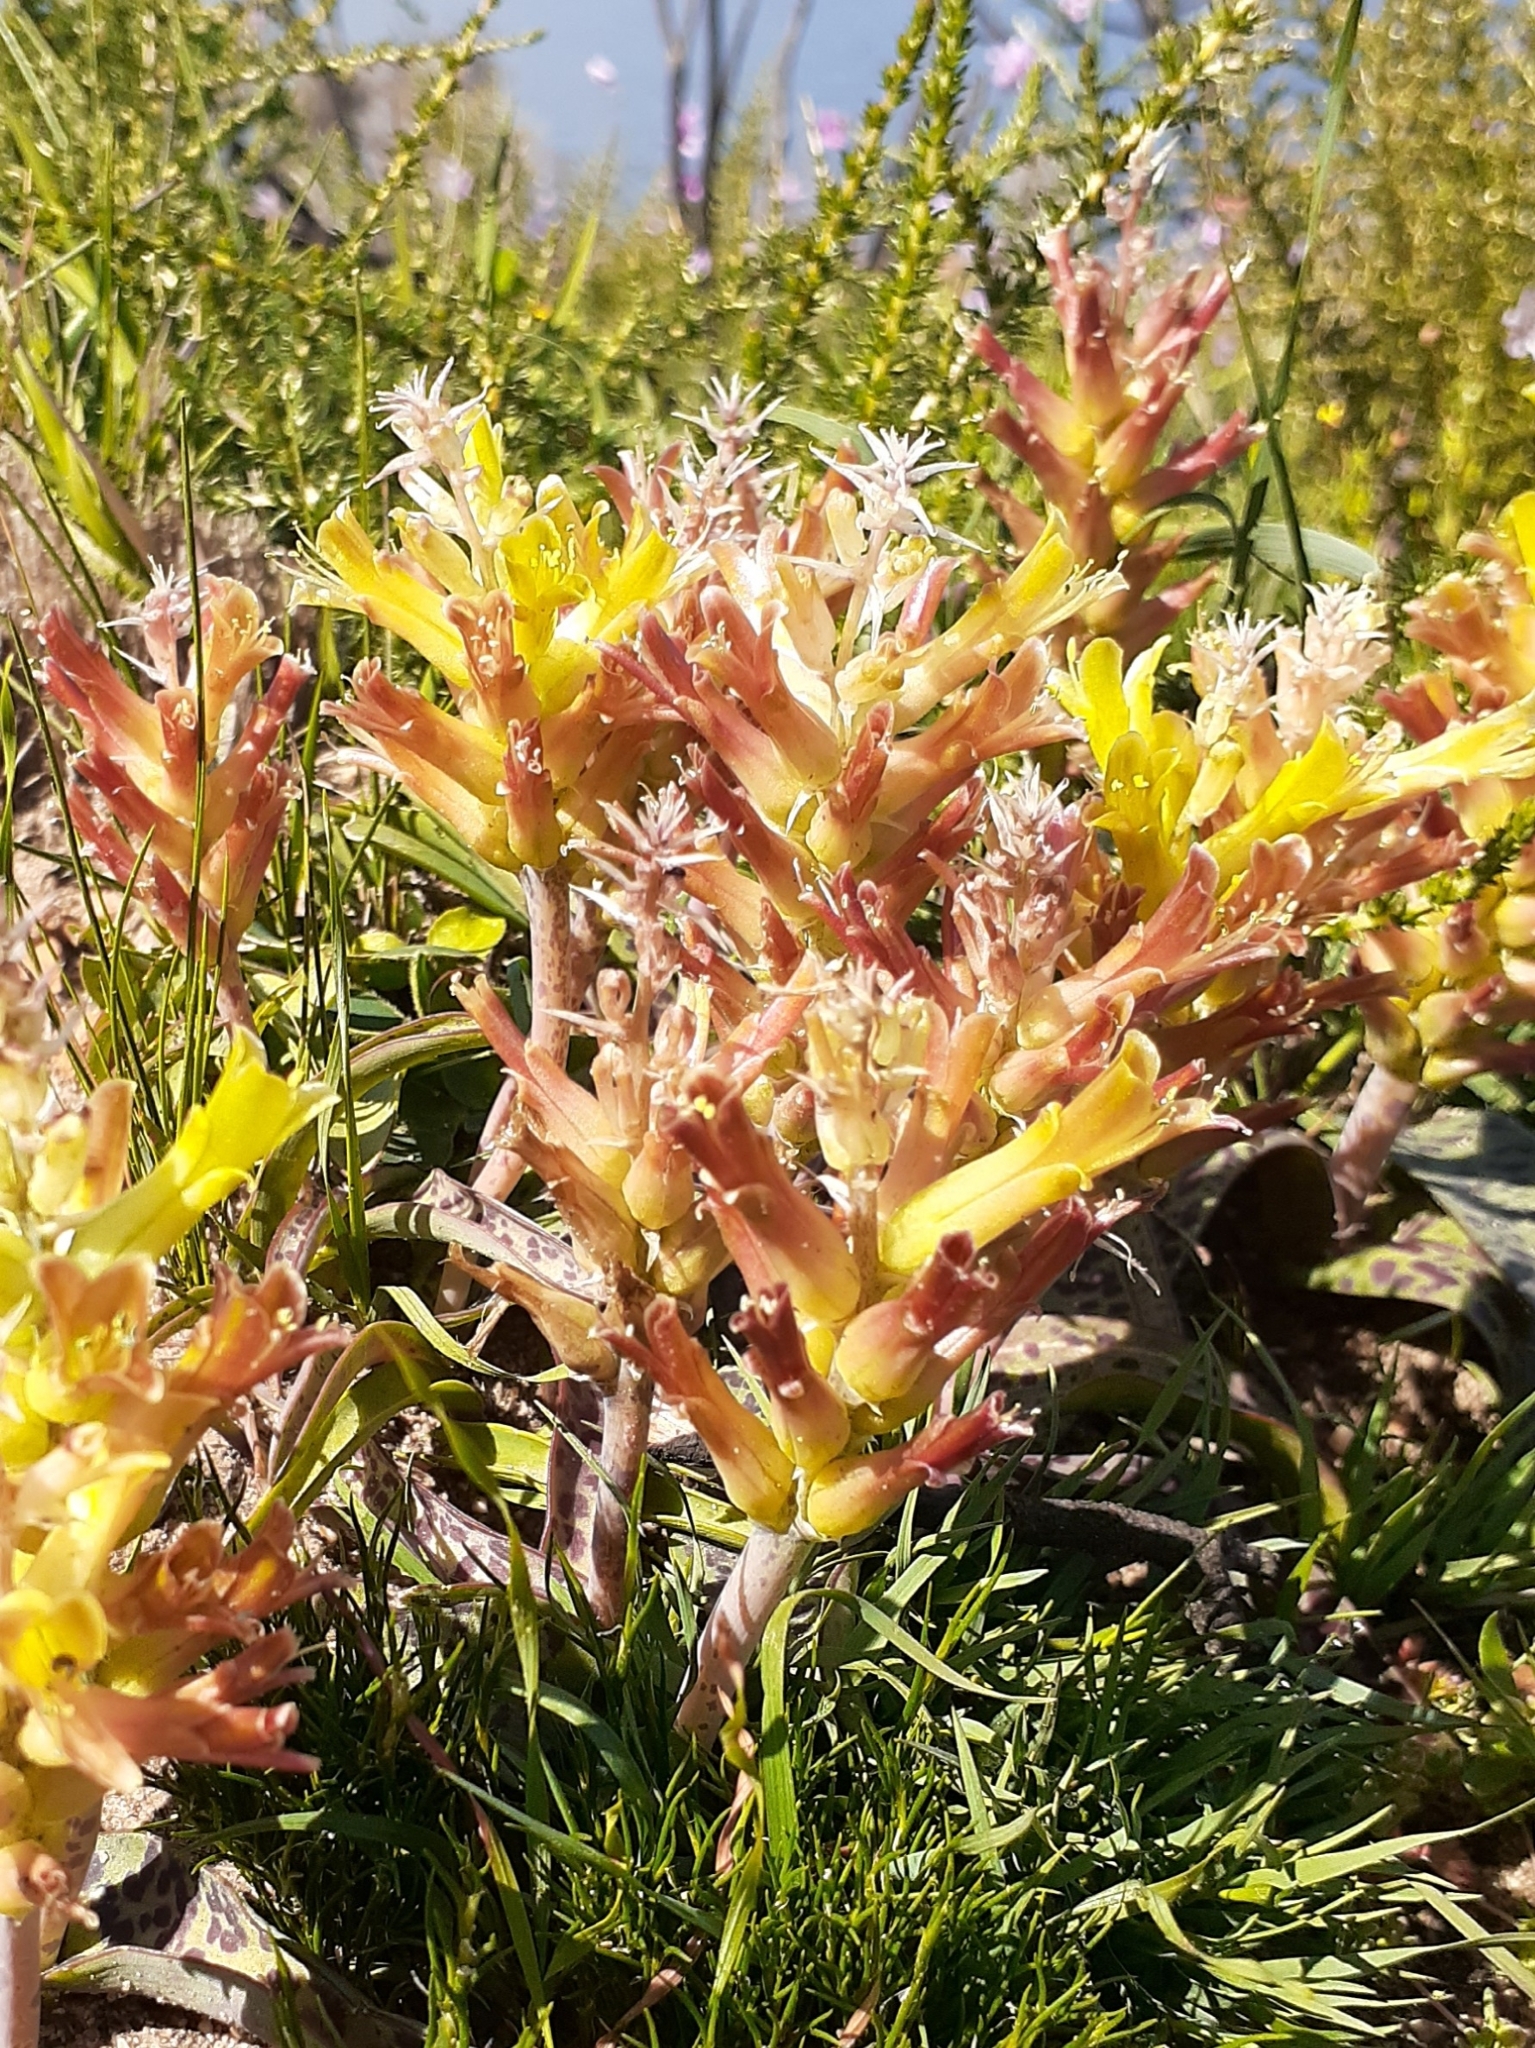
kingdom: Plantae
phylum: Tracheophyta
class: Liliopsida
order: Asparagales
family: Asparagaceae
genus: Lachenalia
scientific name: Lachenalia orchioides
